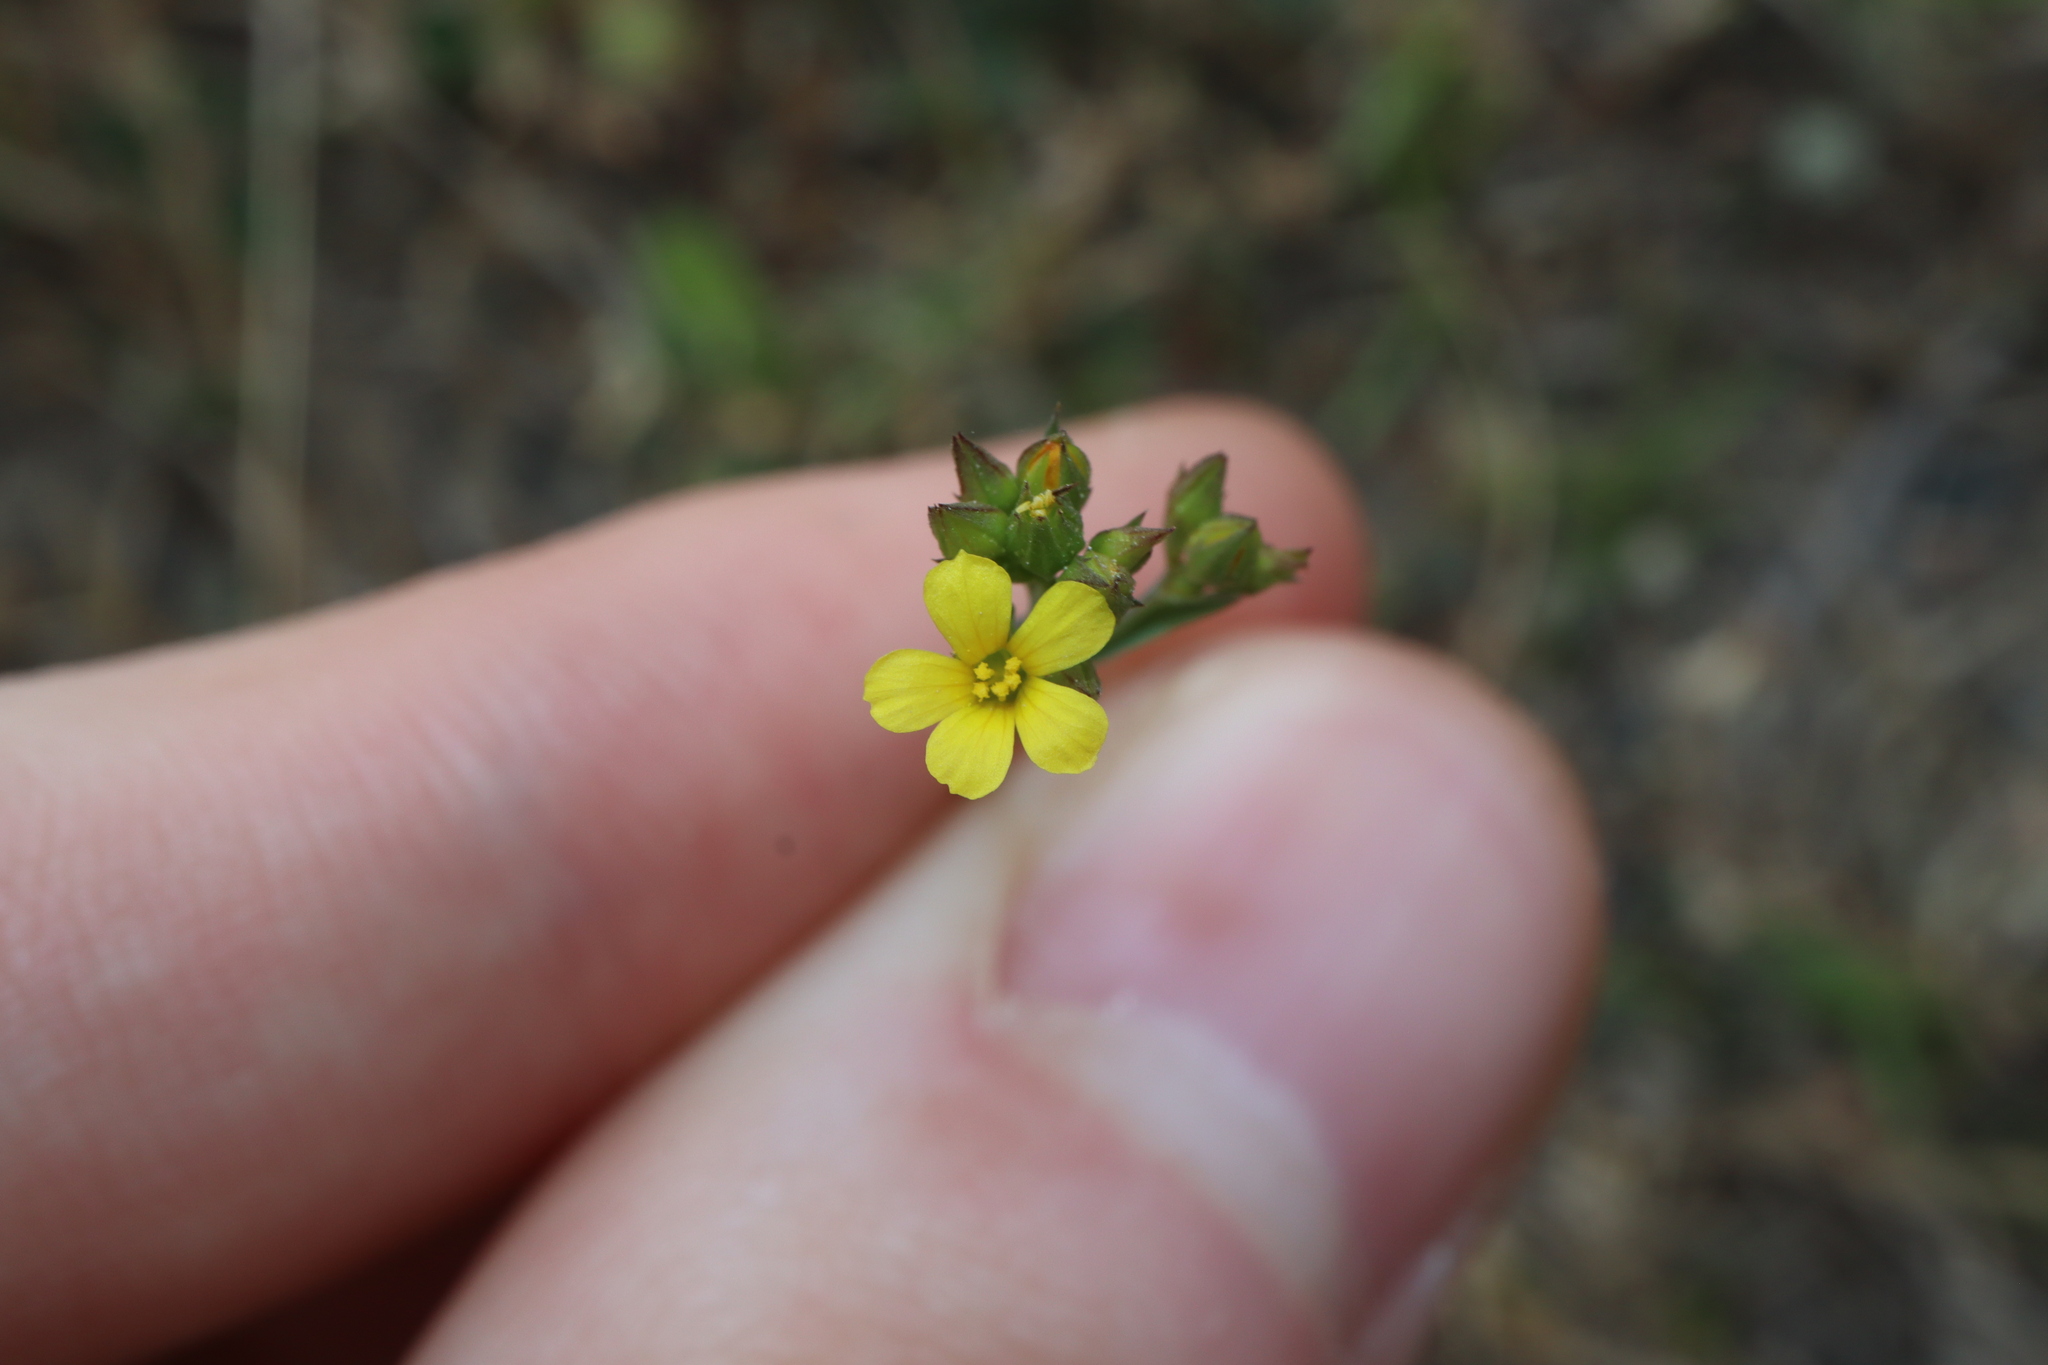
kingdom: Plantae
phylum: Tracheophyta
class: Magnoliopsida
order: Malpighiales
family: Linaceae
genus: Linum
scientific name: Linum trigynum
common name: French flax
